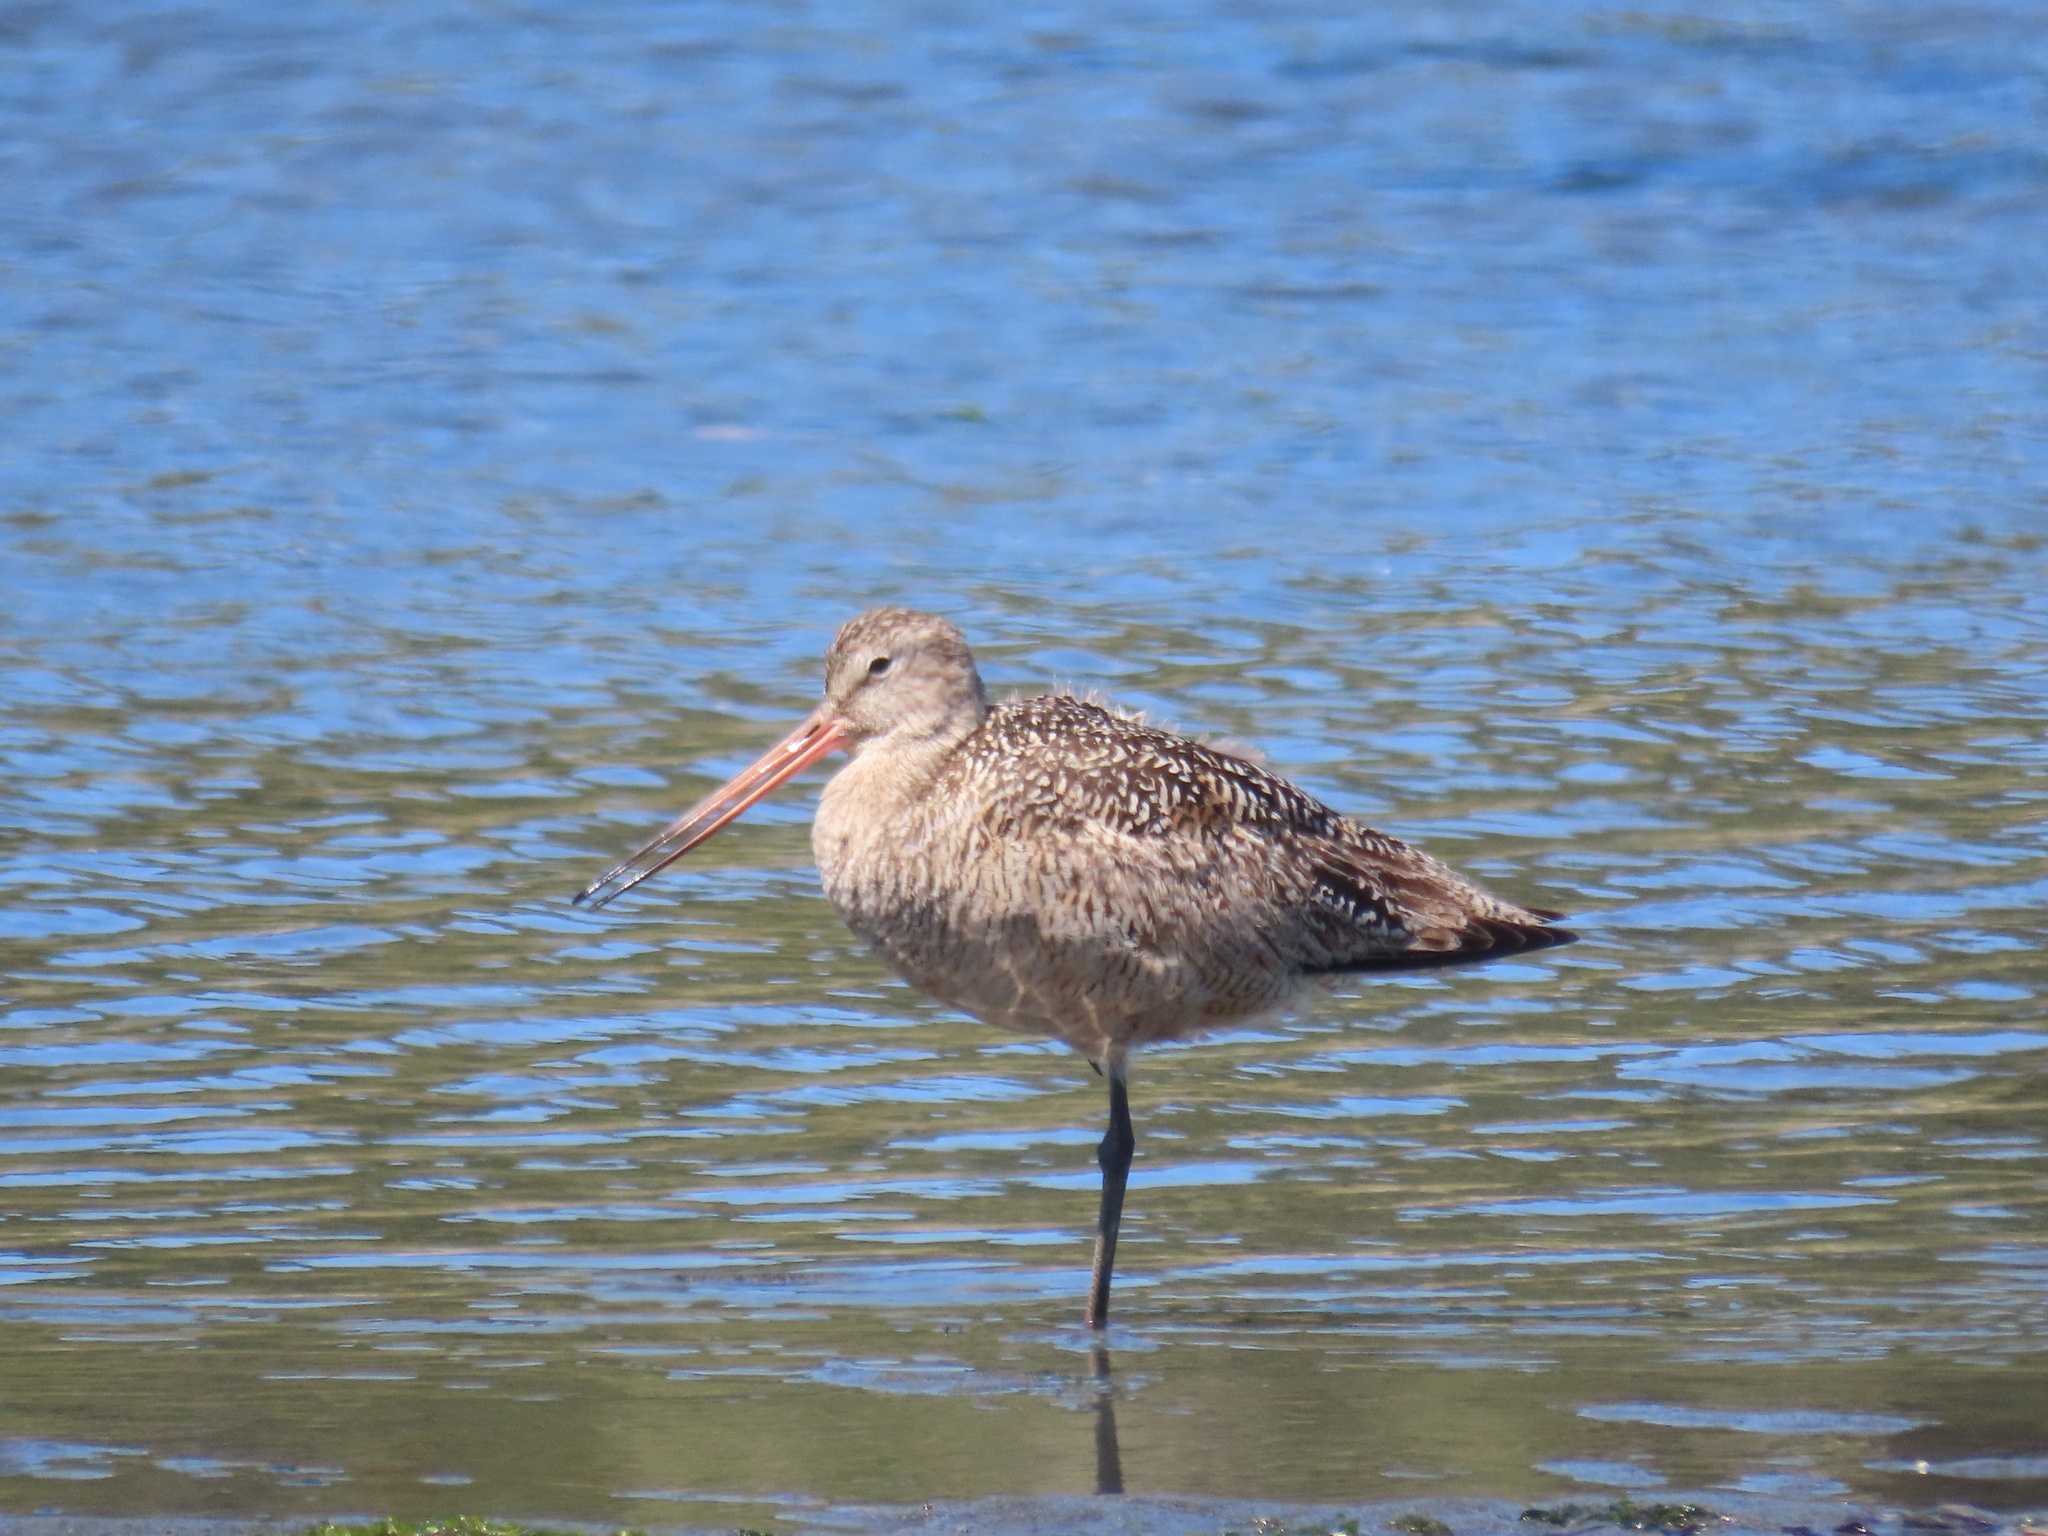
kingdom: Animalia
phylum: Chordata
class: Aves
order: Charadriiformes
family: Scolopacidae
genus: Limosa
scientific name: Limosa fedoa
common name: Marbled godwit
